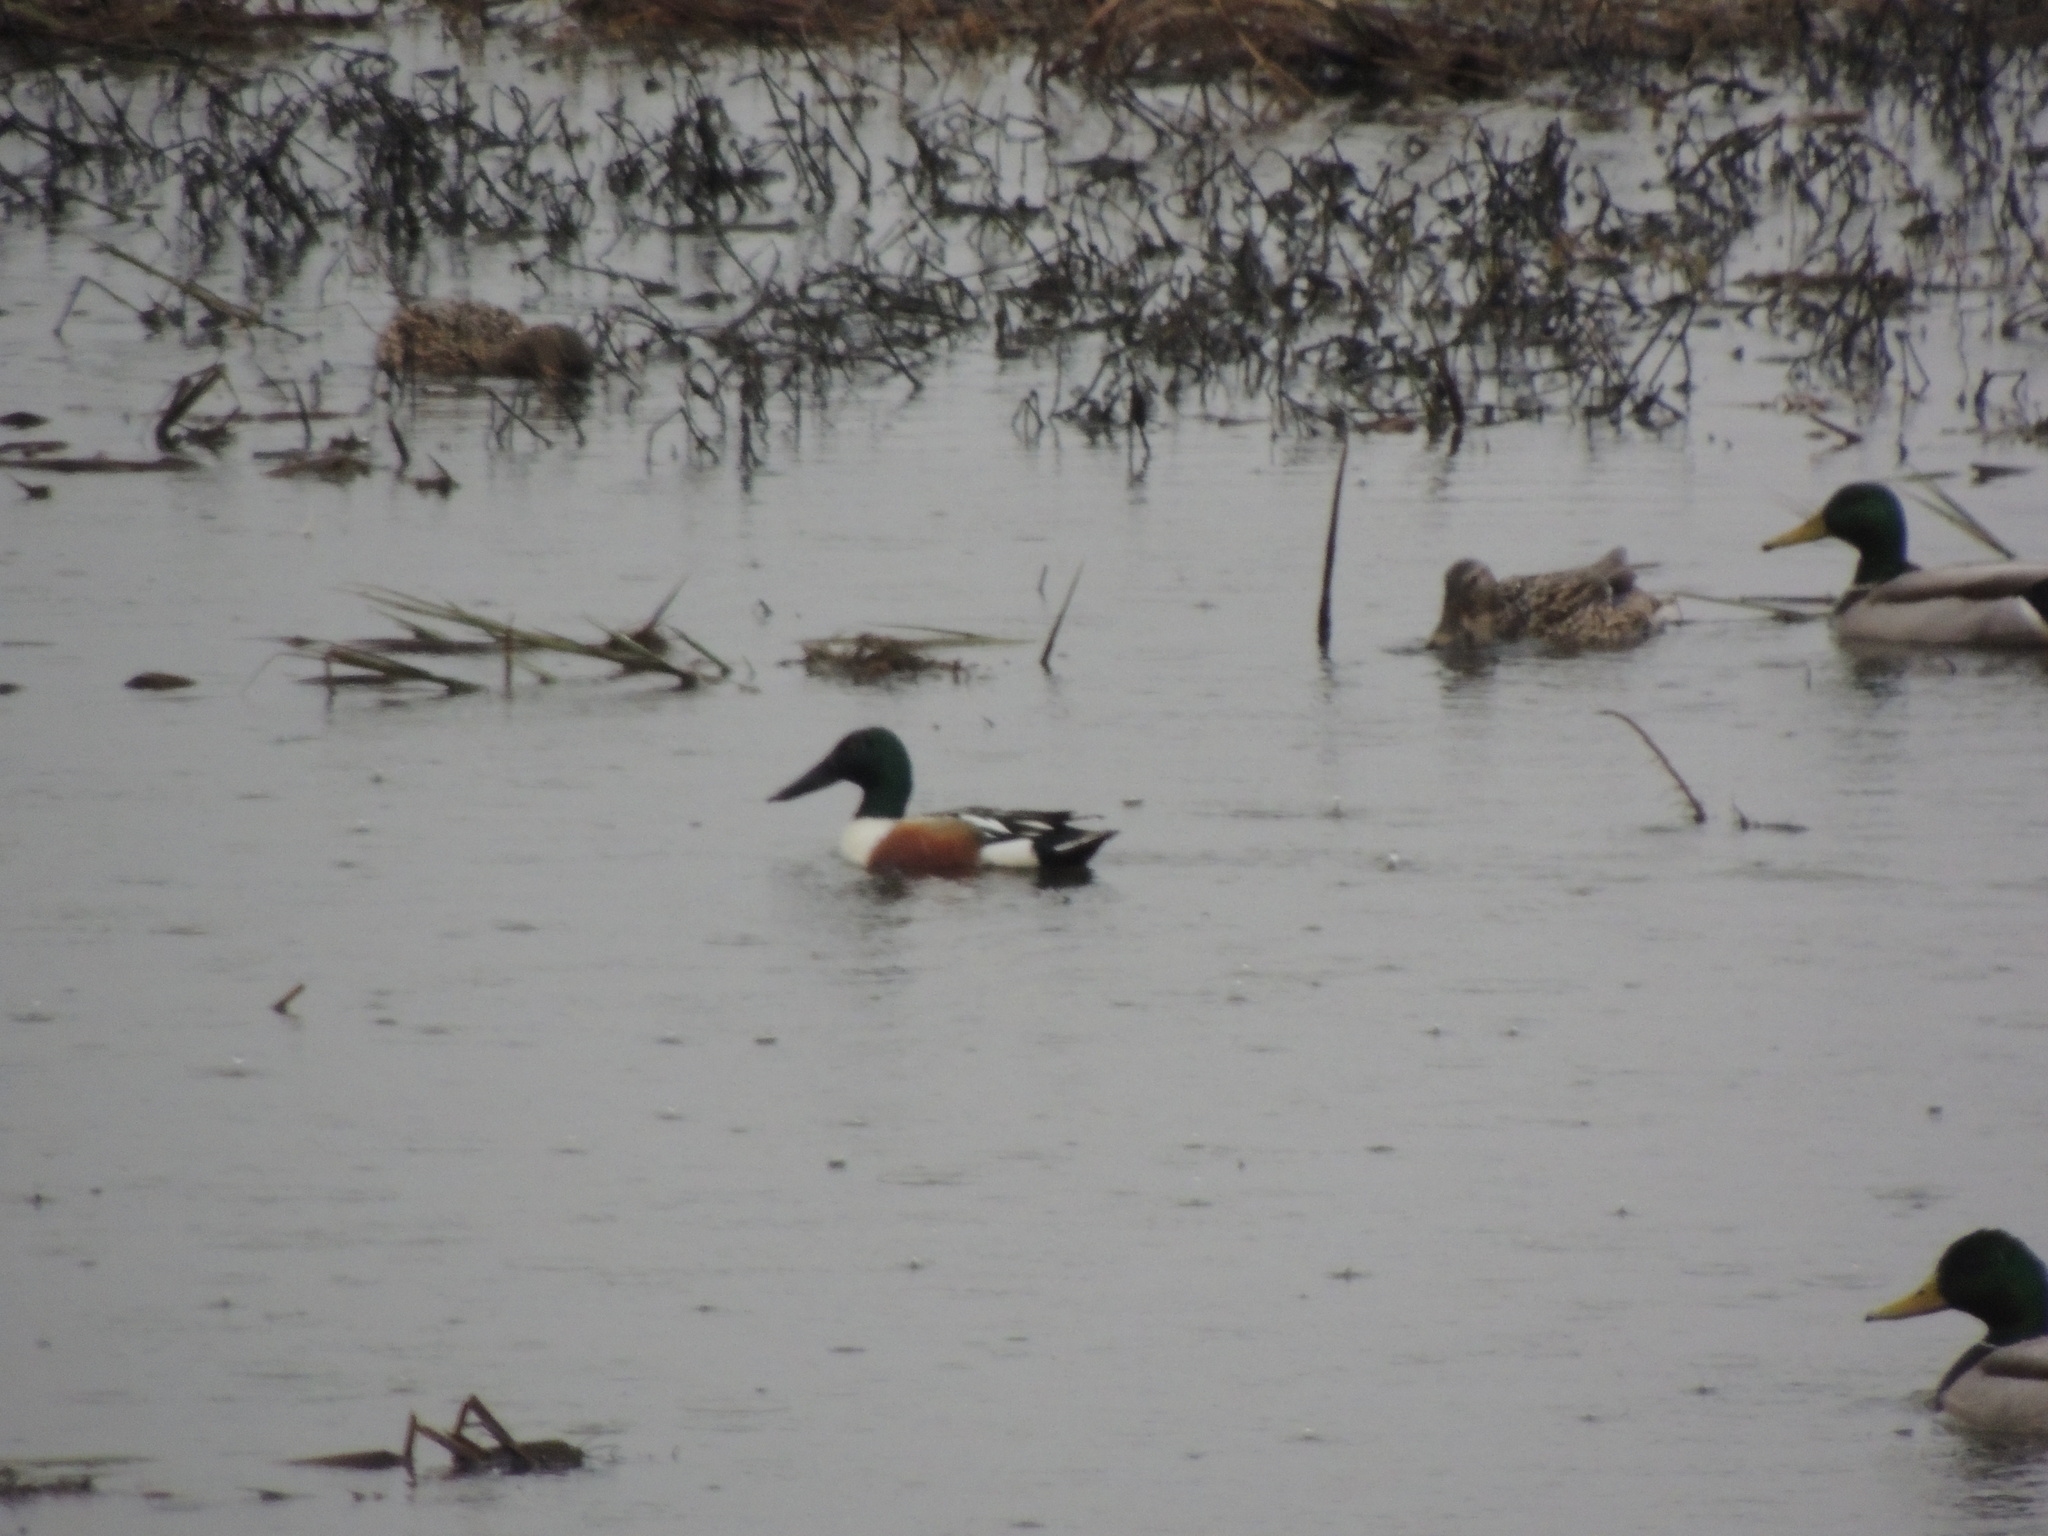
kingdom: Animalia
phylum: Chordata
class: Aves
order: Anseriformes
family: Anatidae
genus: Spatula
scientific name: Spatula clypeata
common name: Northern shoveler
